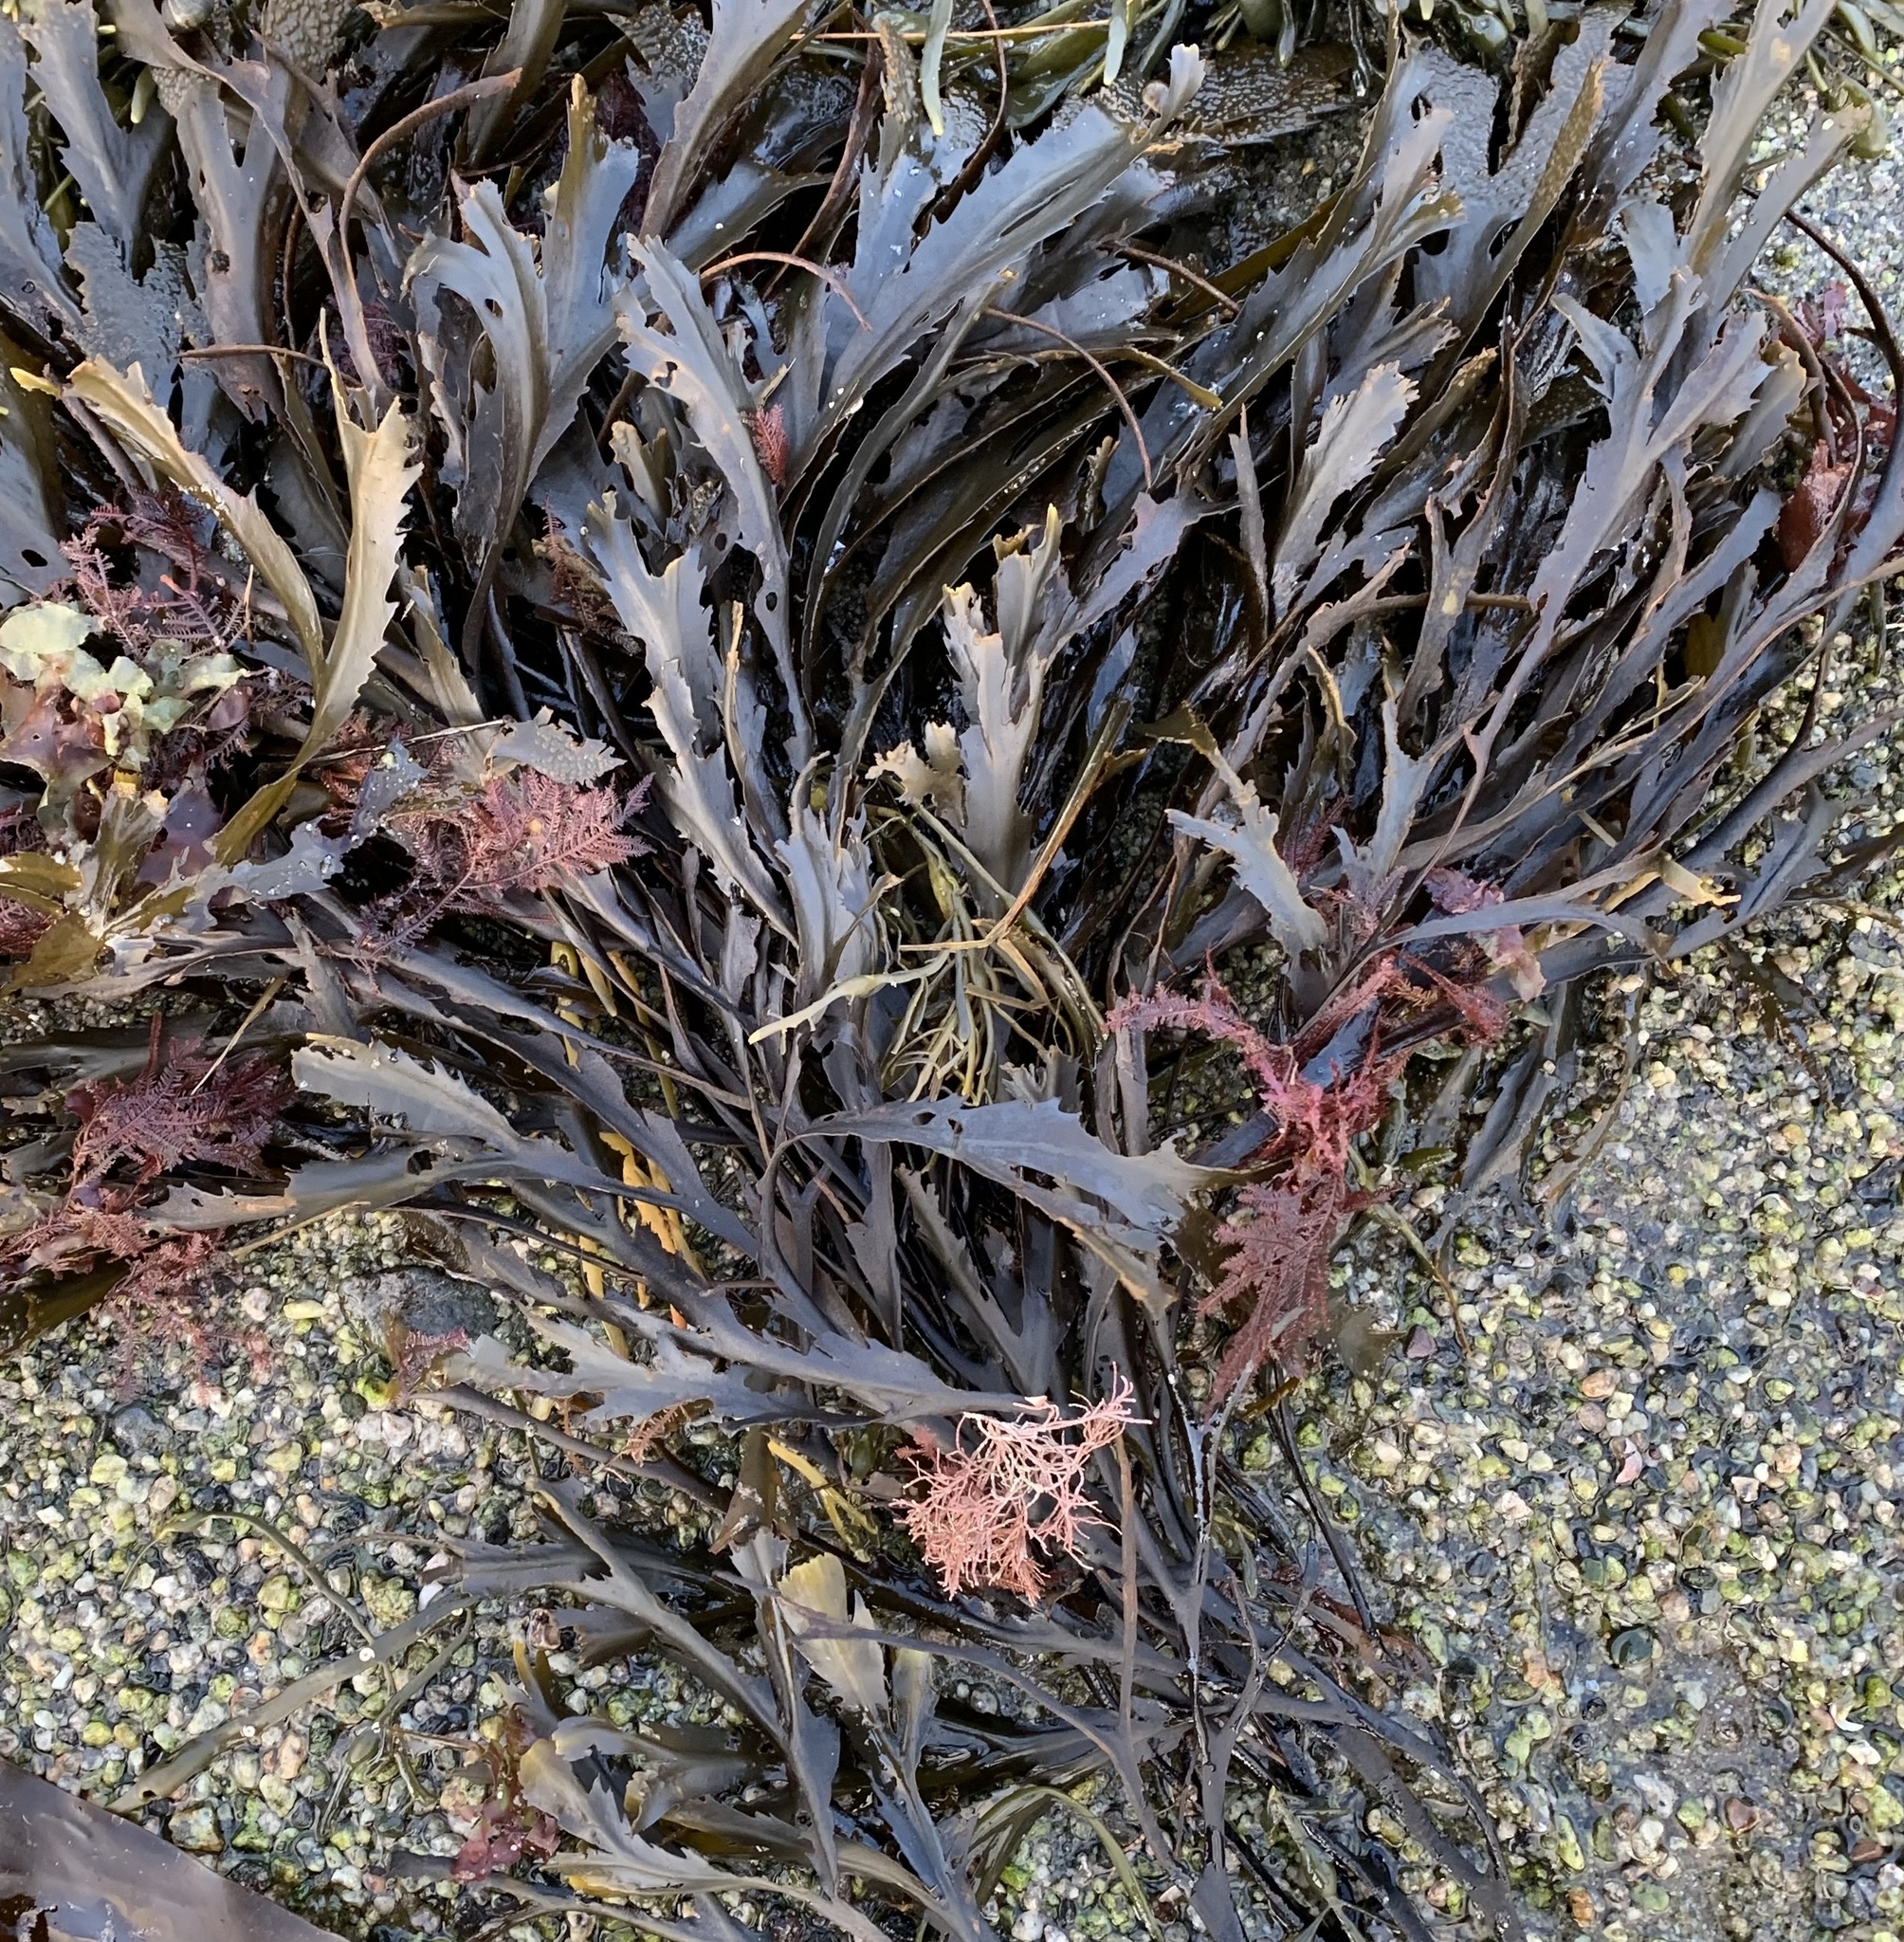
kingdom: Chromista
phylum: Ochrophyta
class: Phaeophyceae
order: Fucales
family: Fucaceae
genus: Fucus
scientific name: Fucus serratus
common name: Toothed wrack
